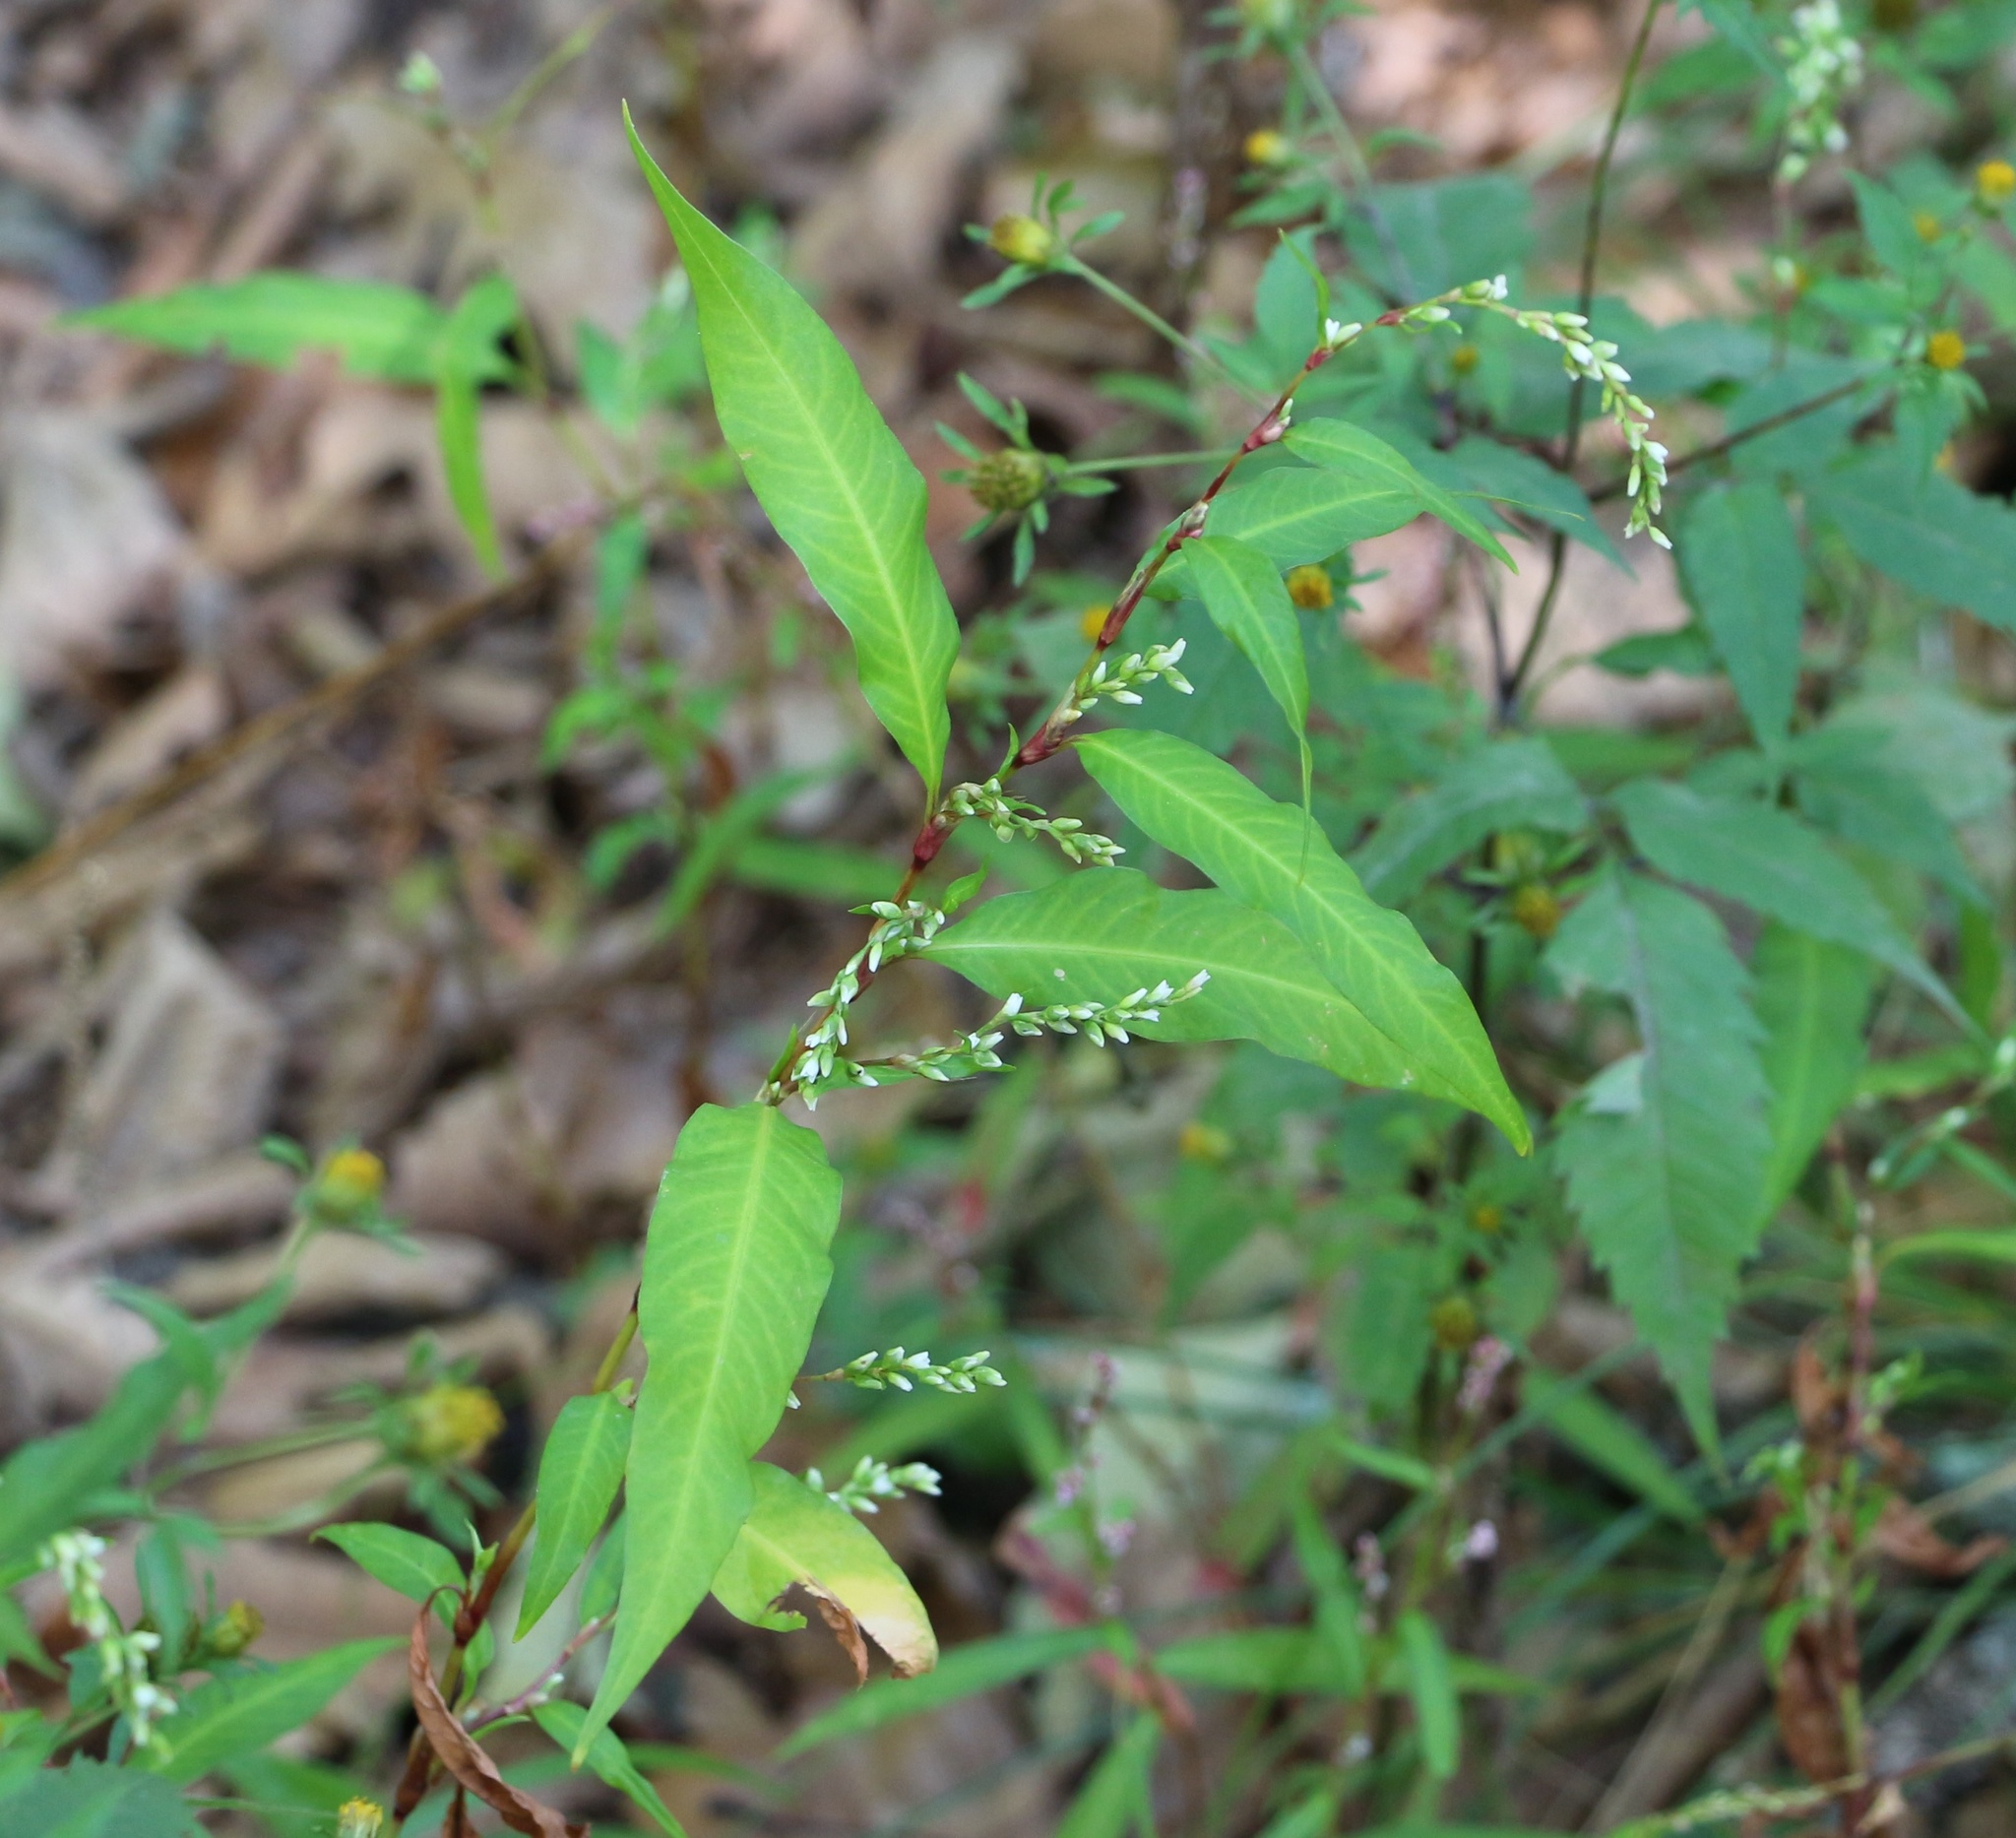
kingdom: Plantae
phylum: Tracheophyta
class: Magnoliopsida
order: Caryophyllales
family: Polygonaceae
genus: Persicaria
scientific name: Persicaria hydropiper
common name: Water-pepper
